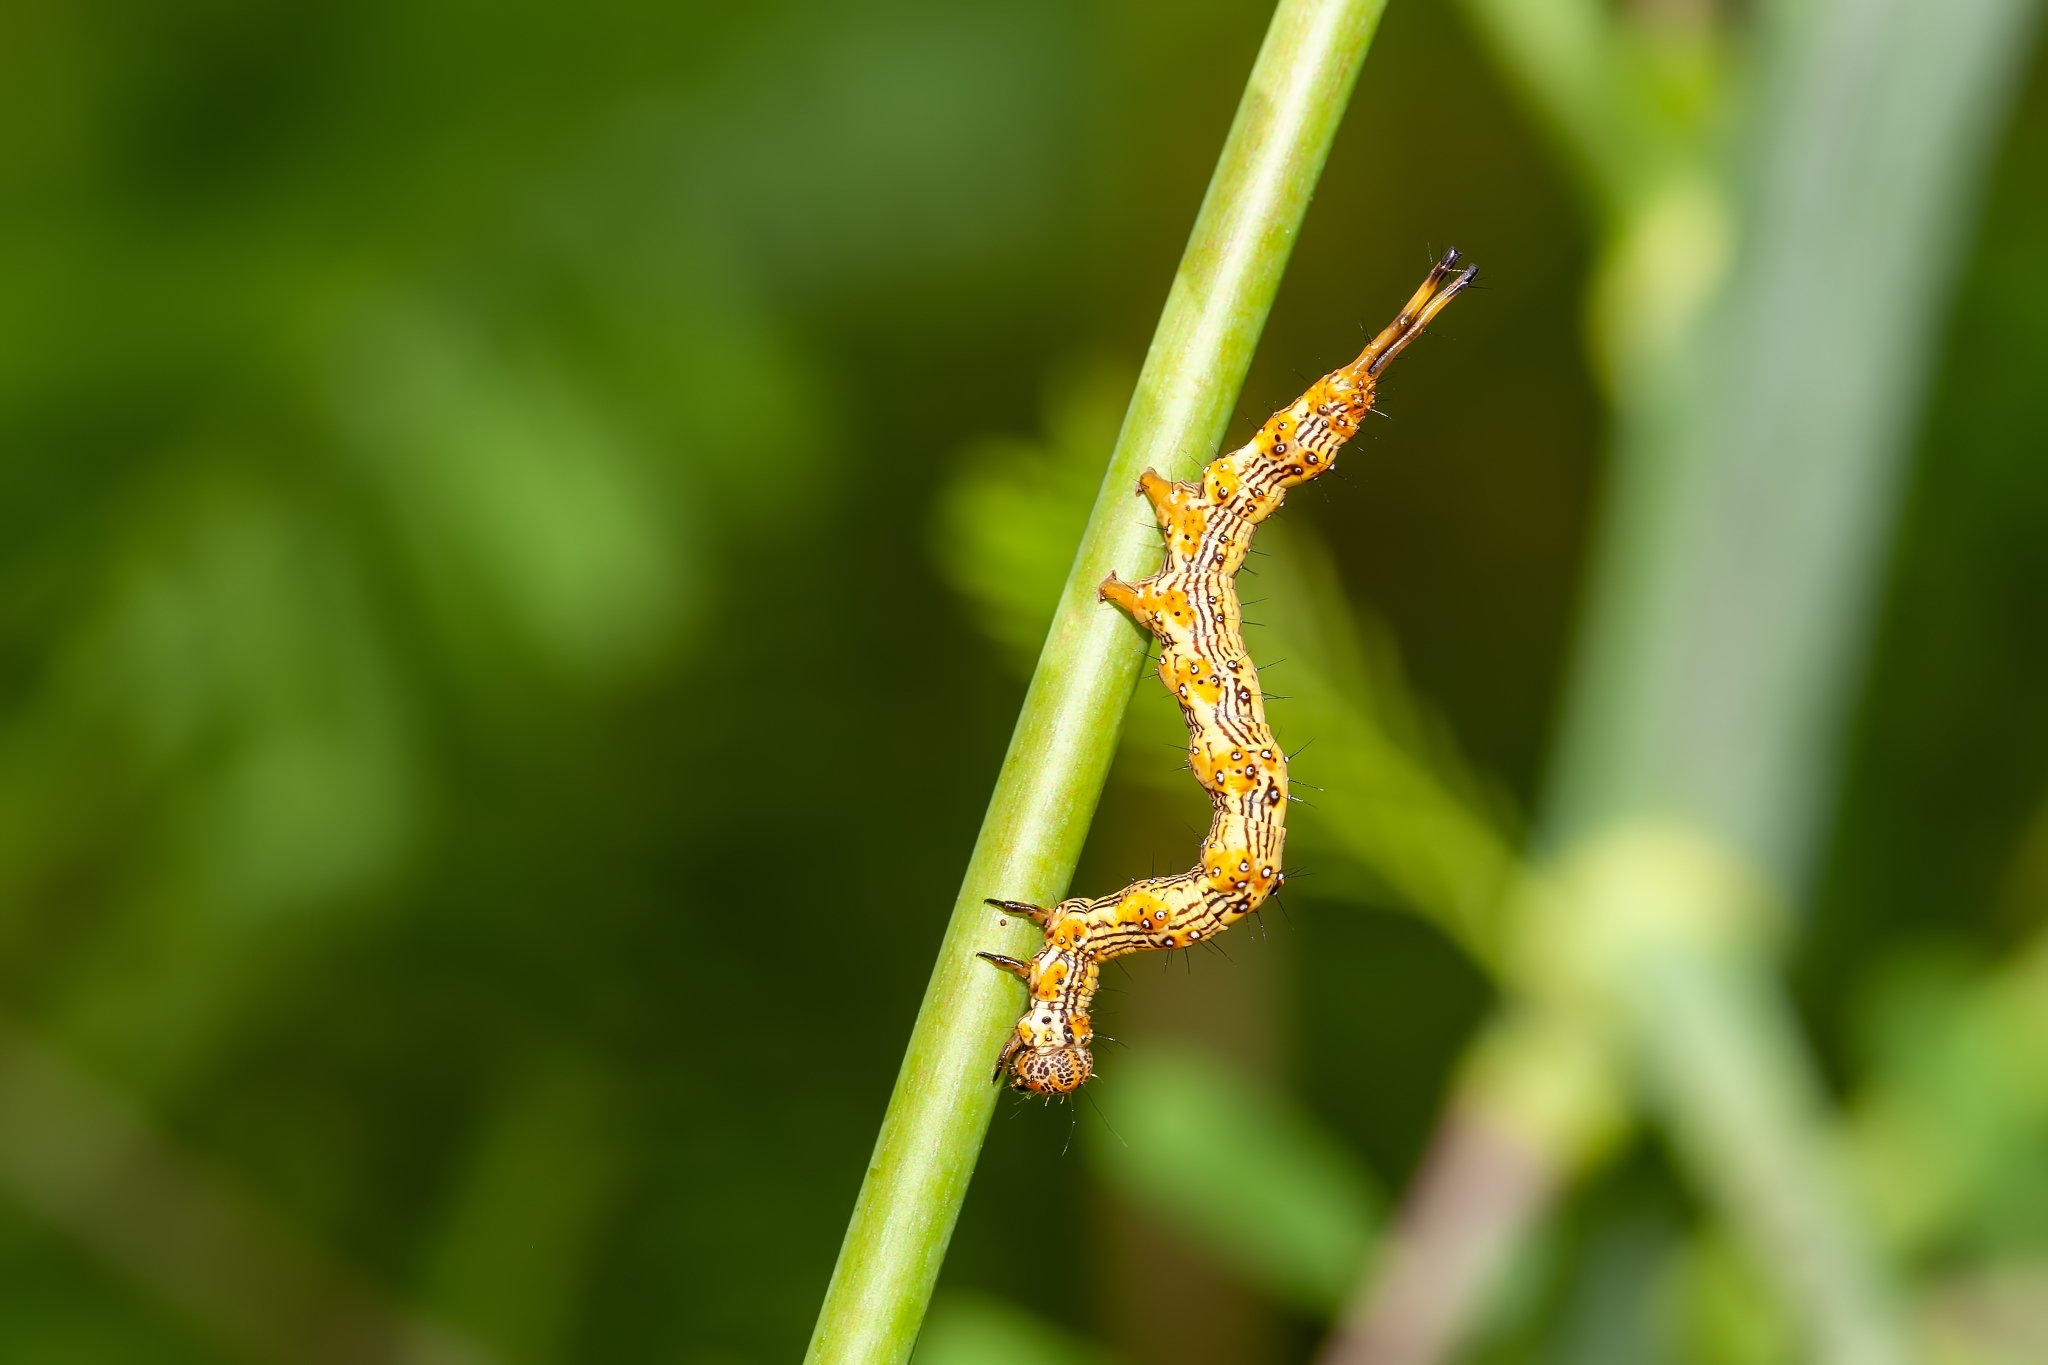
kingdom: Animalia
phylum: Arthropoda
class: Insecta
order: Lepidoptera
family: Erebidae
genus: Selenisa
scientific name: Selenisa sueroides
